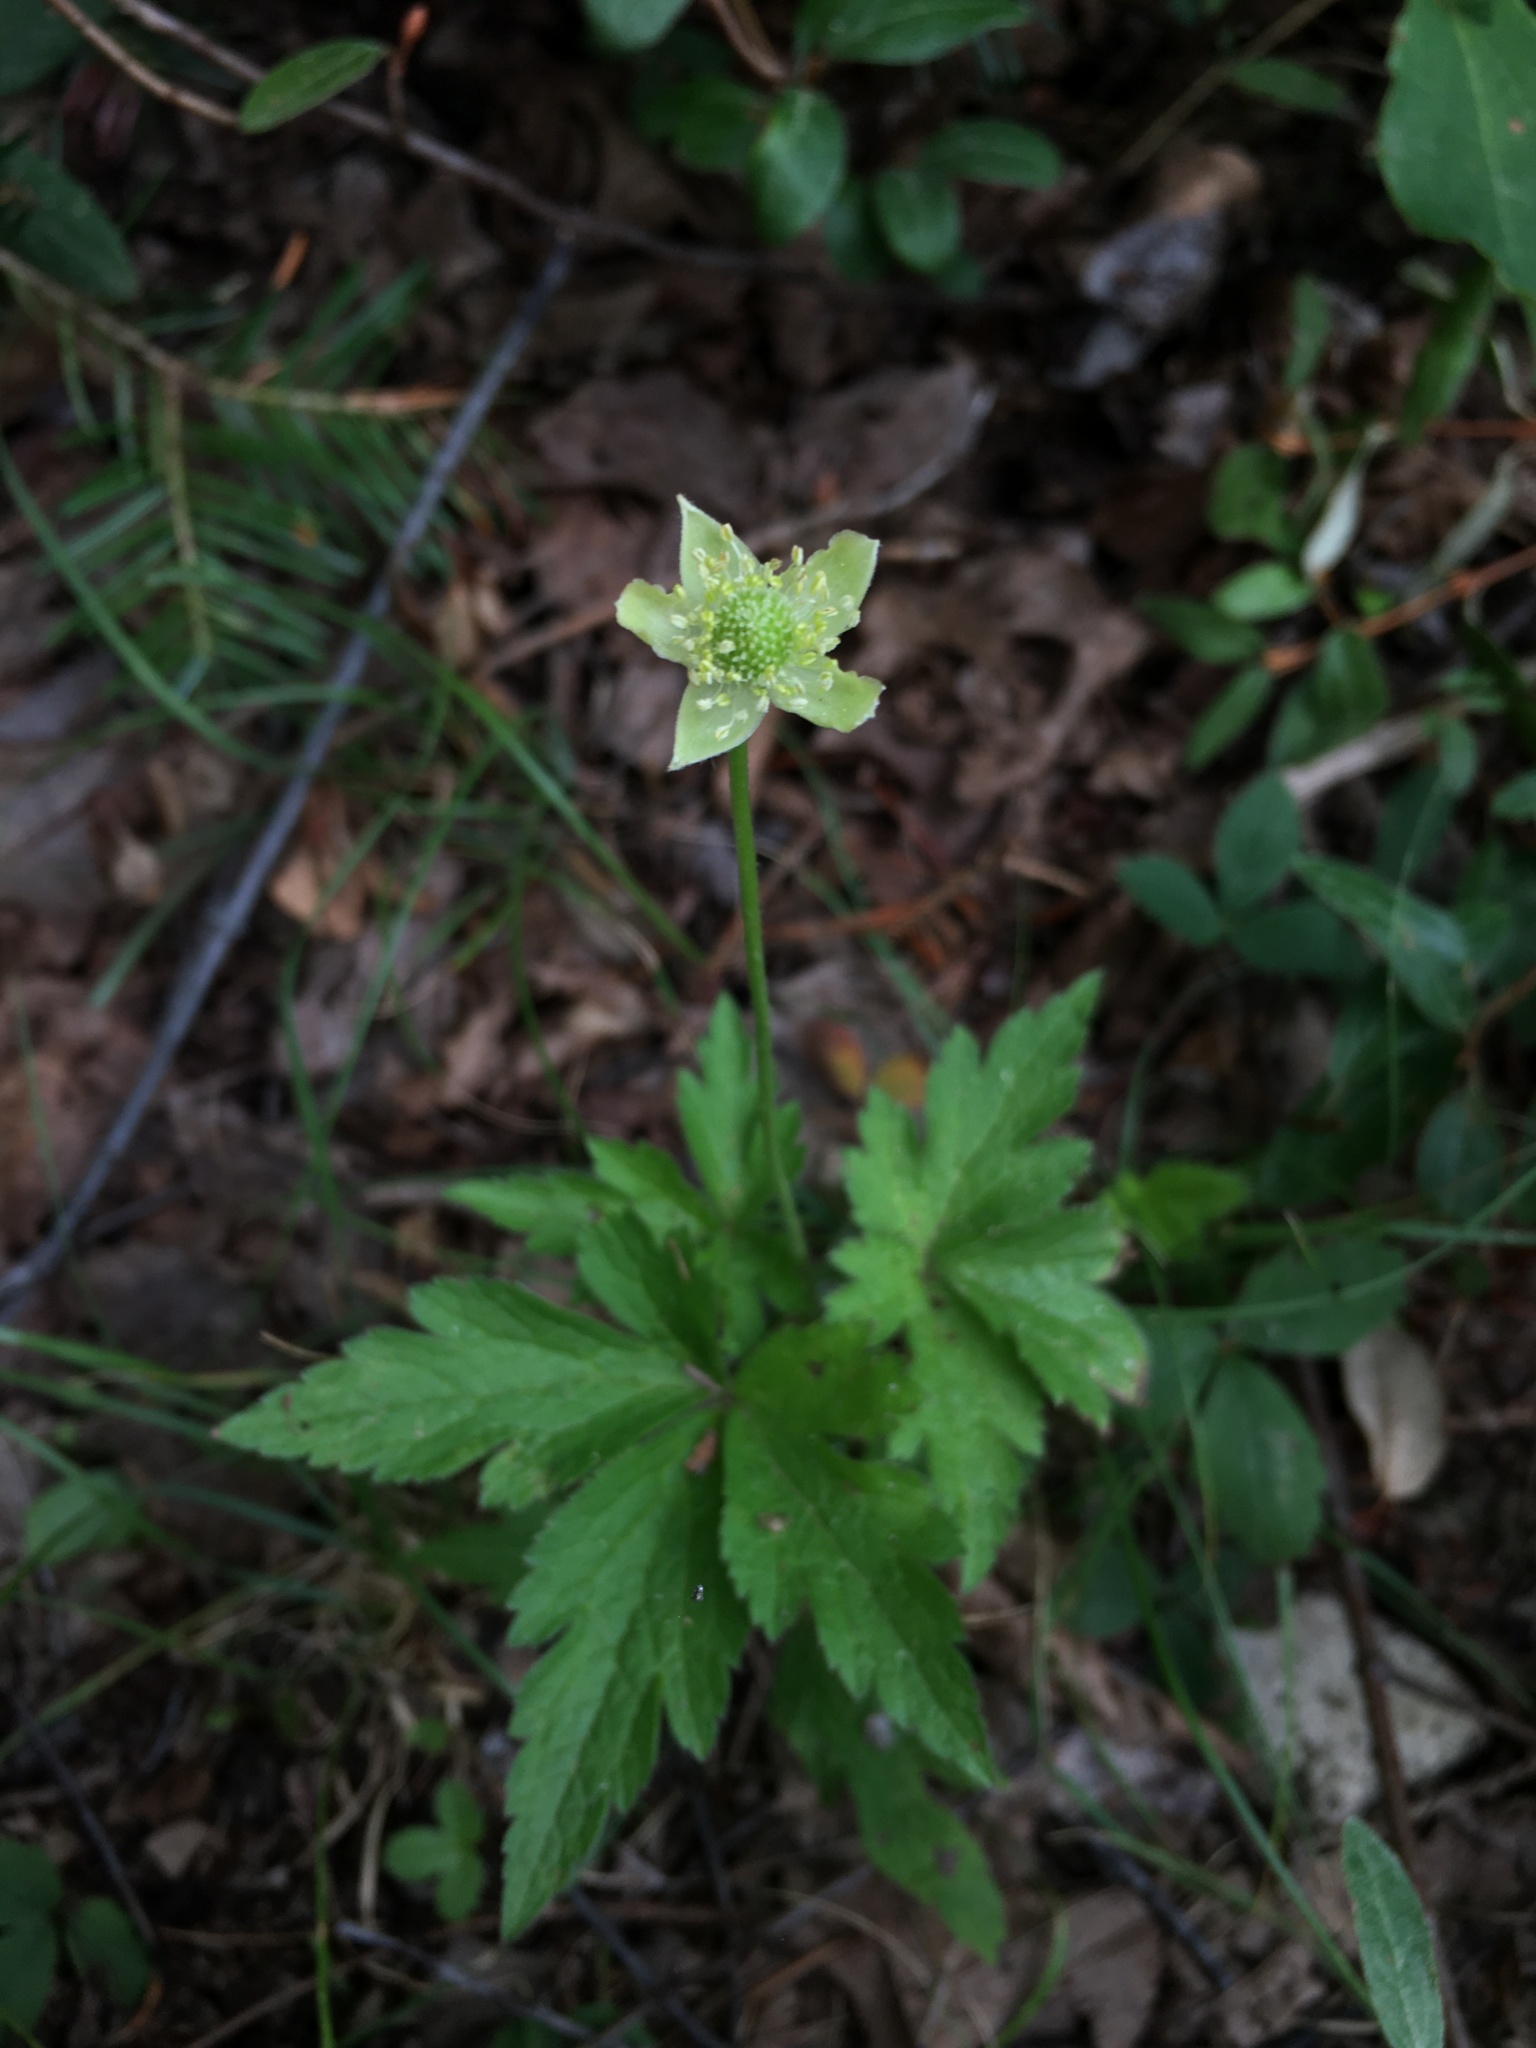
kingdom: Plantae
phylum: Tracheophyta
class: Magnoliopsida
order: Ranunculales
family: Ranunculaceae
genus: Anemone
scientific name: Anemone virginiana
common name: Tall anemone
